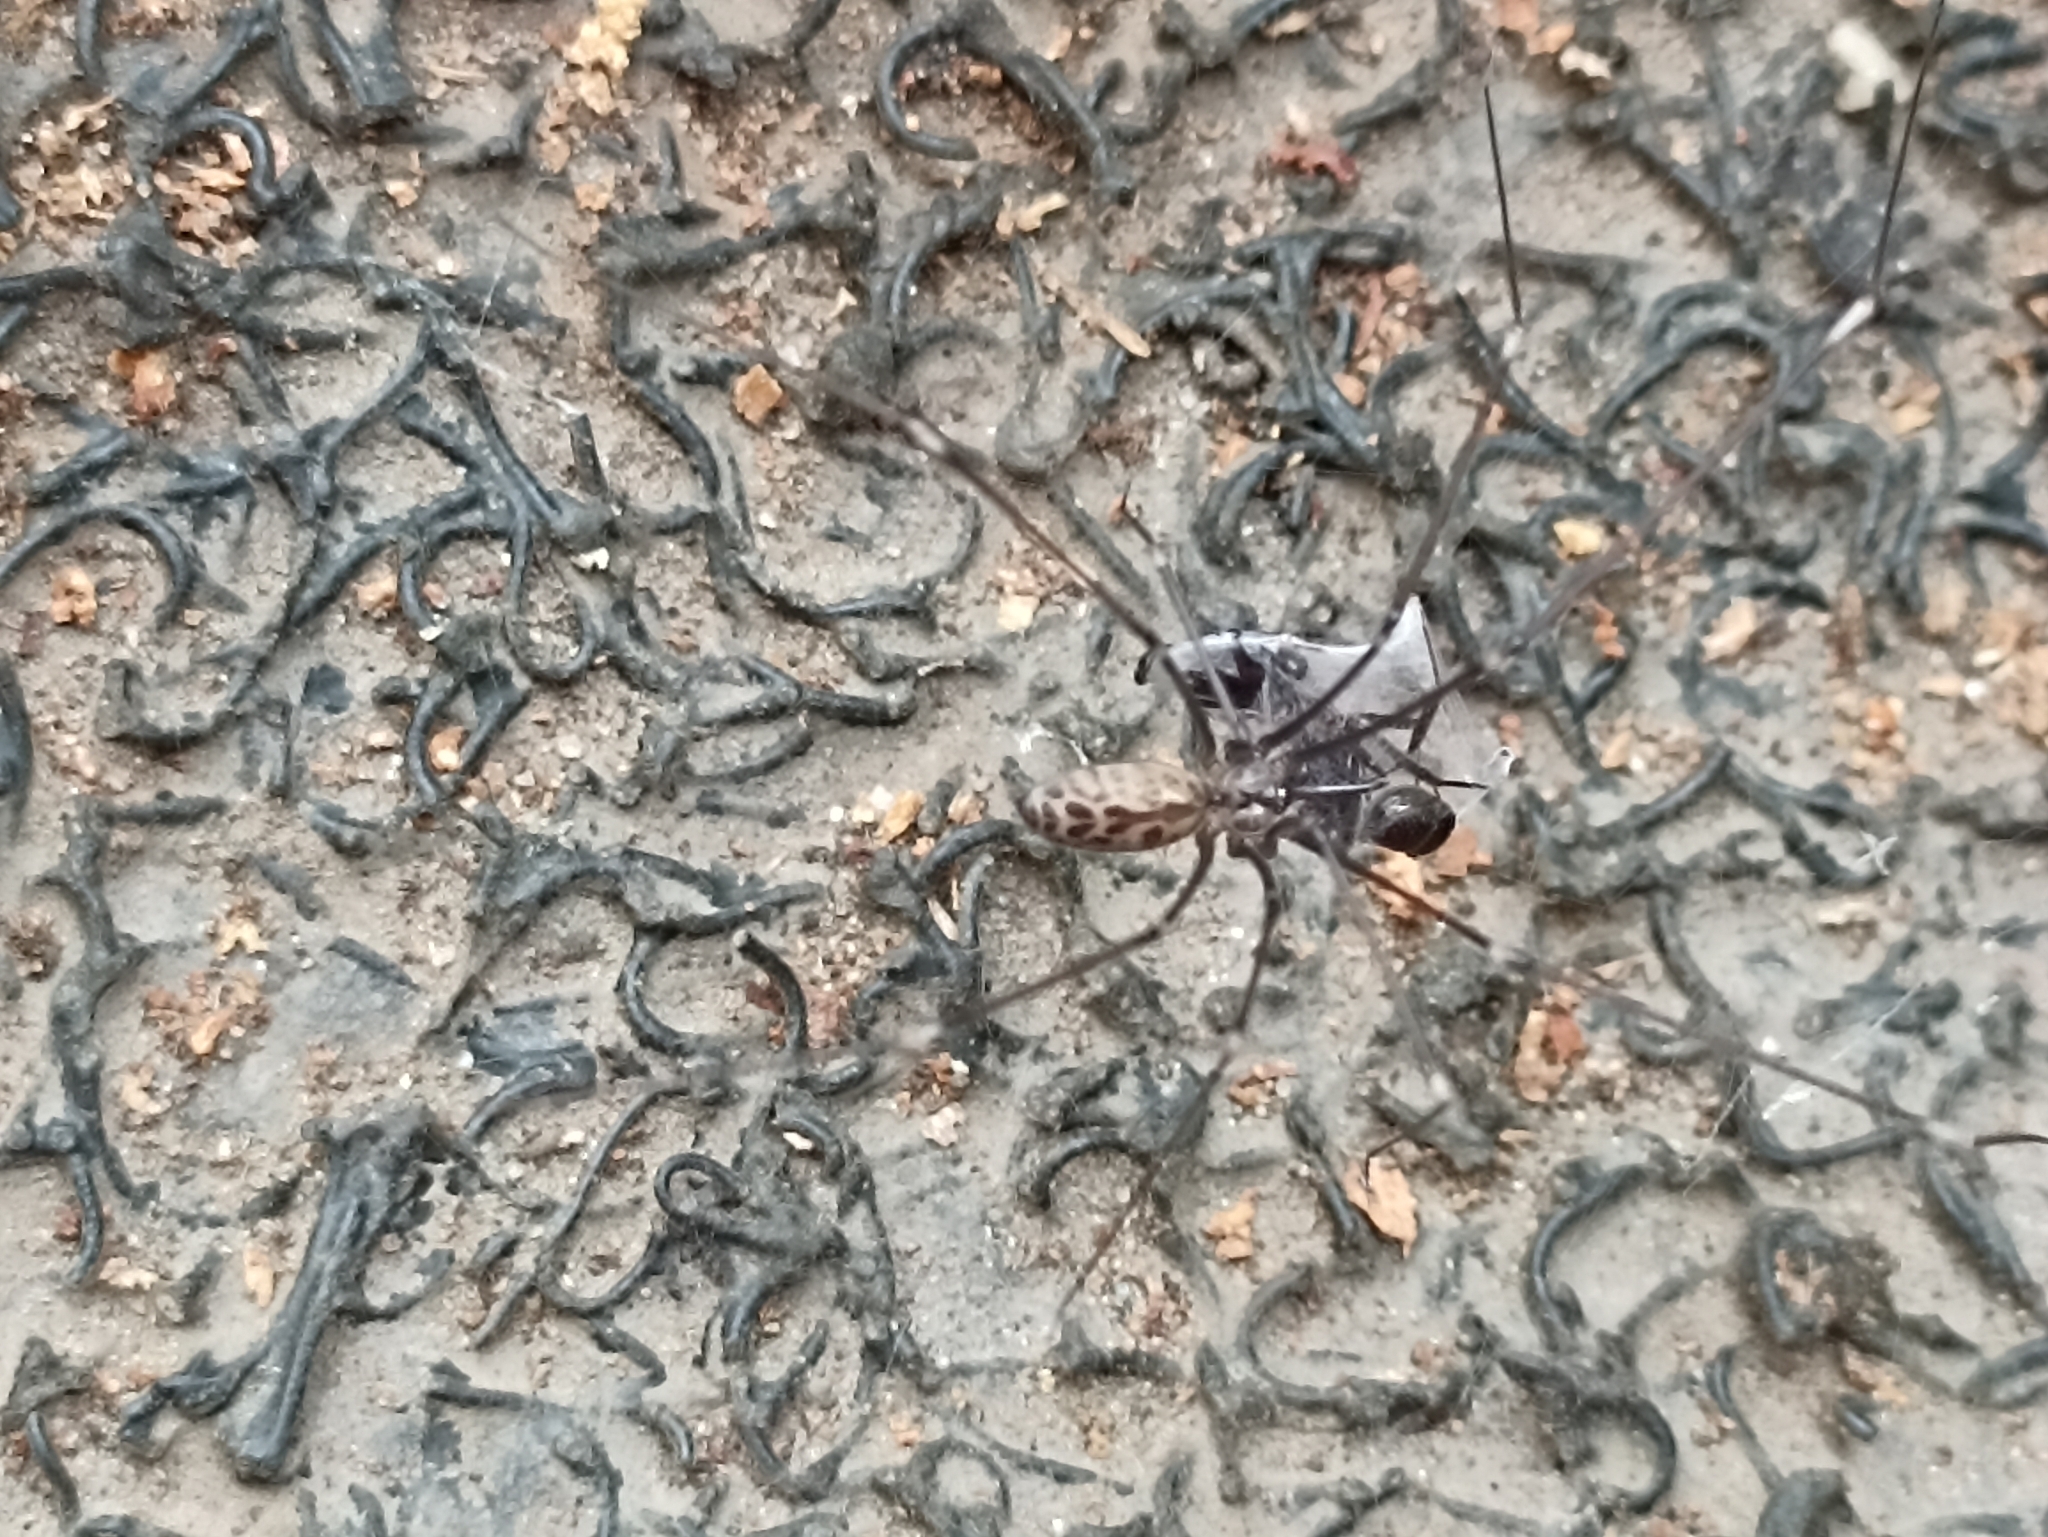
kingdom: Animalia
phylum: Arthropoda
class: Arachnida
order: Araneae
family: Pholcidae
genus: Smeringopus
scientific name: Smeringopus pallidus
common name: Cellar spider
